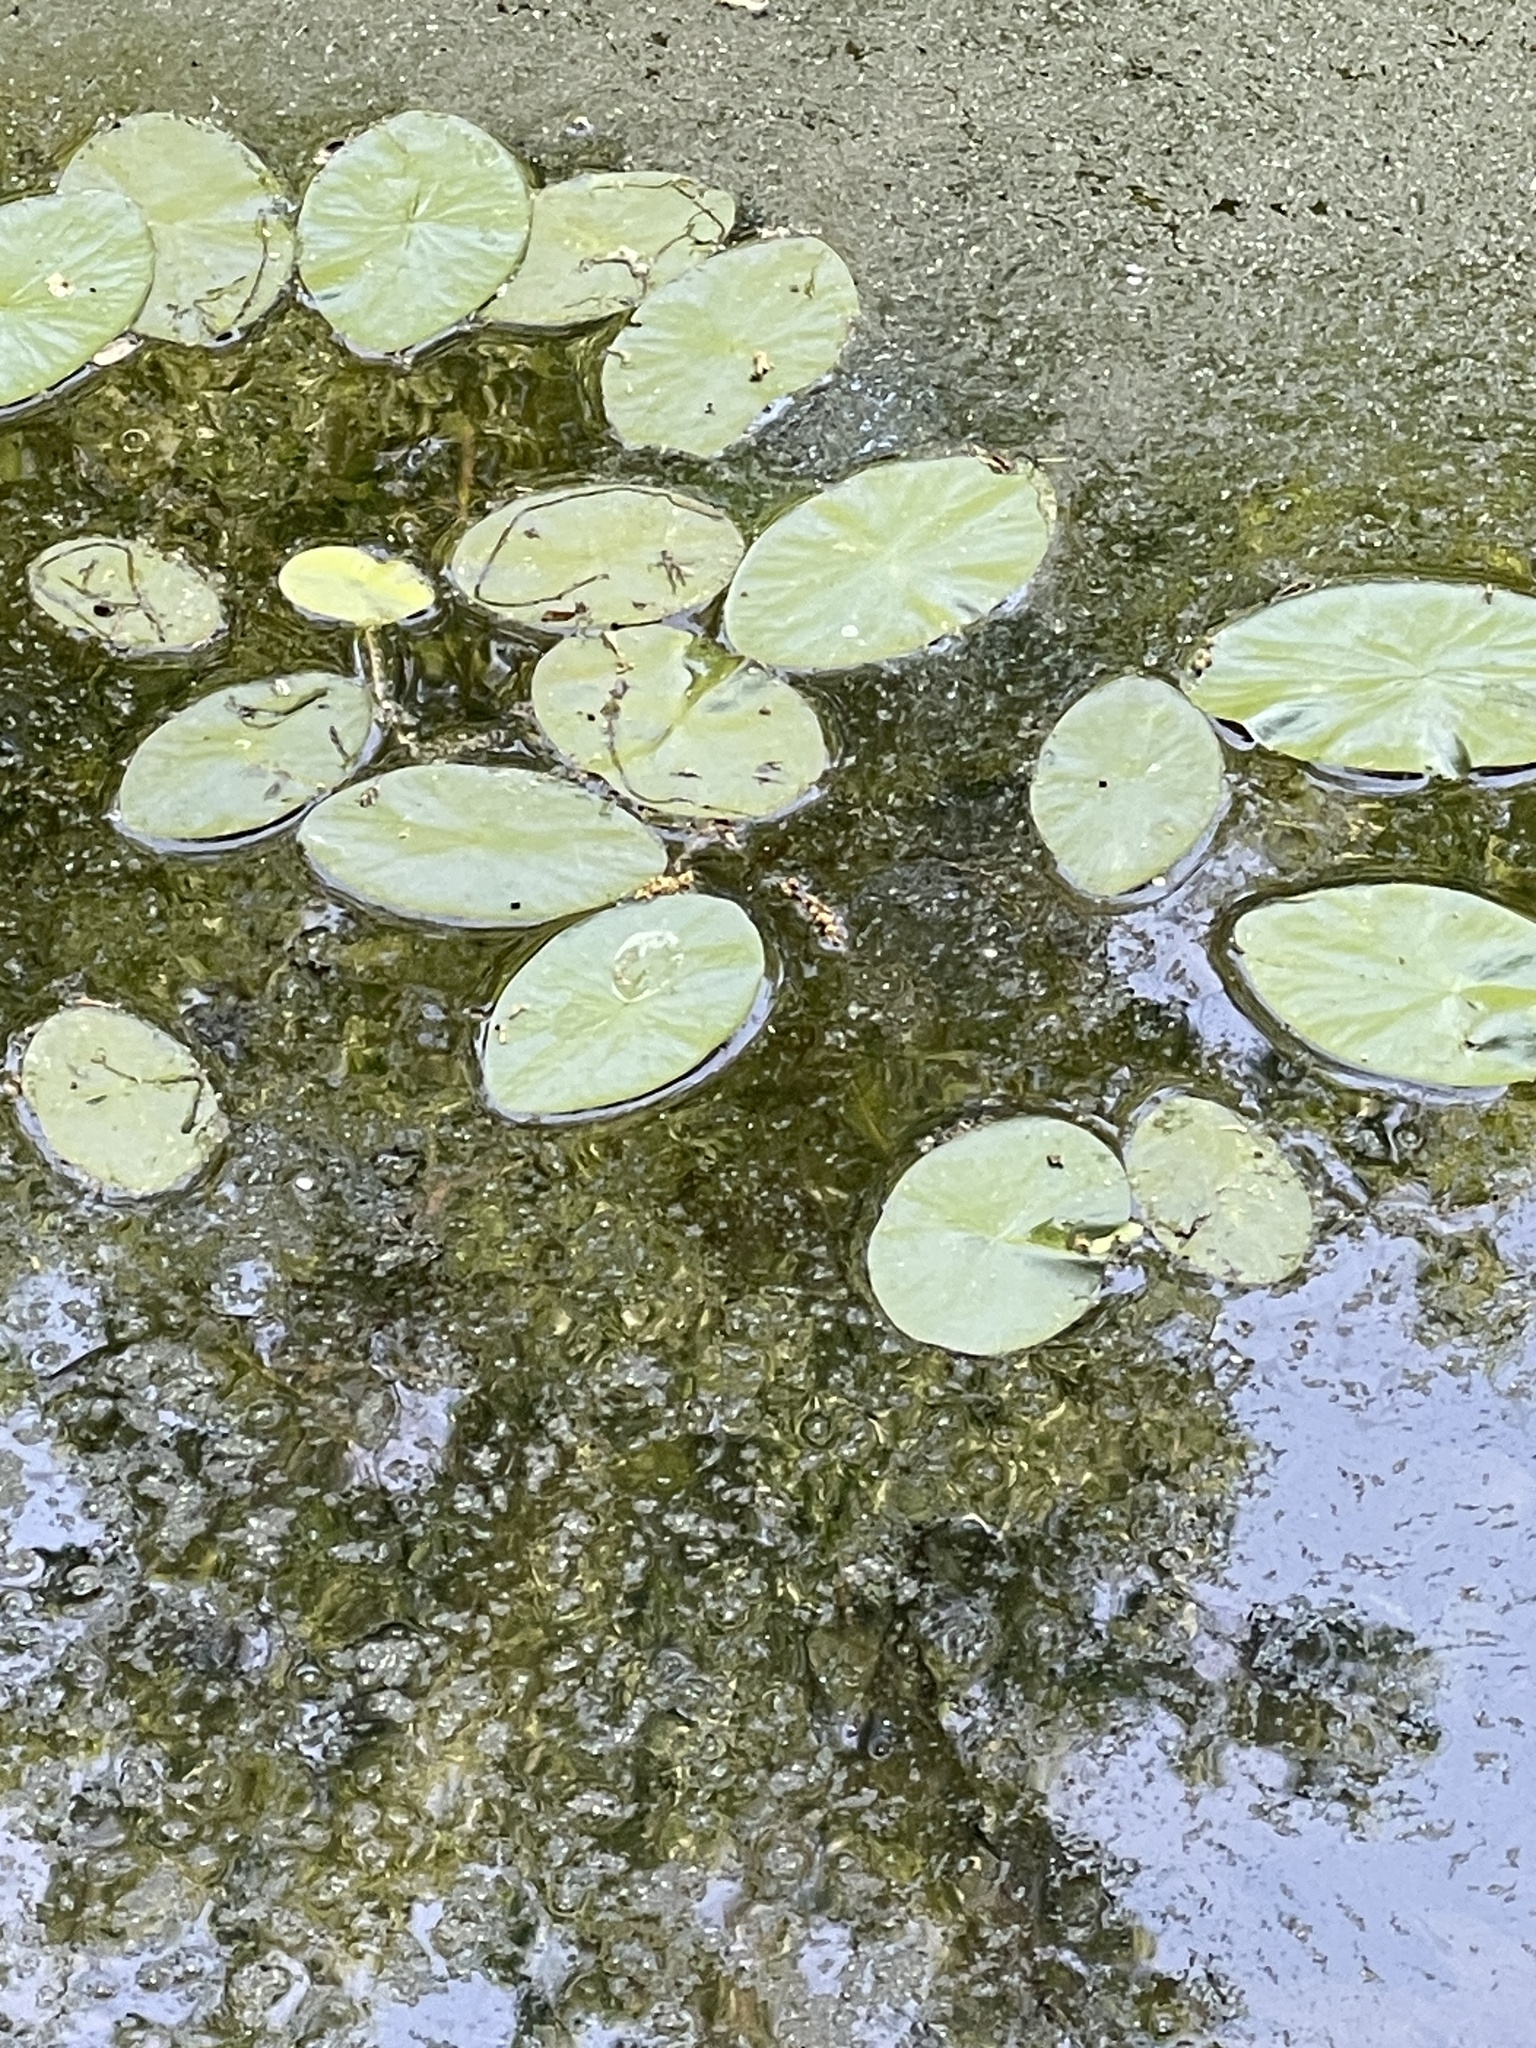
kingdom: Plantae
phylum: Tracheophyta
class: Magnoliopsida
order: Nymphaeales
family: Cabombaceae
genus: Brasenia
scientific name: Brasenia schreberi
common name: Water-shield
